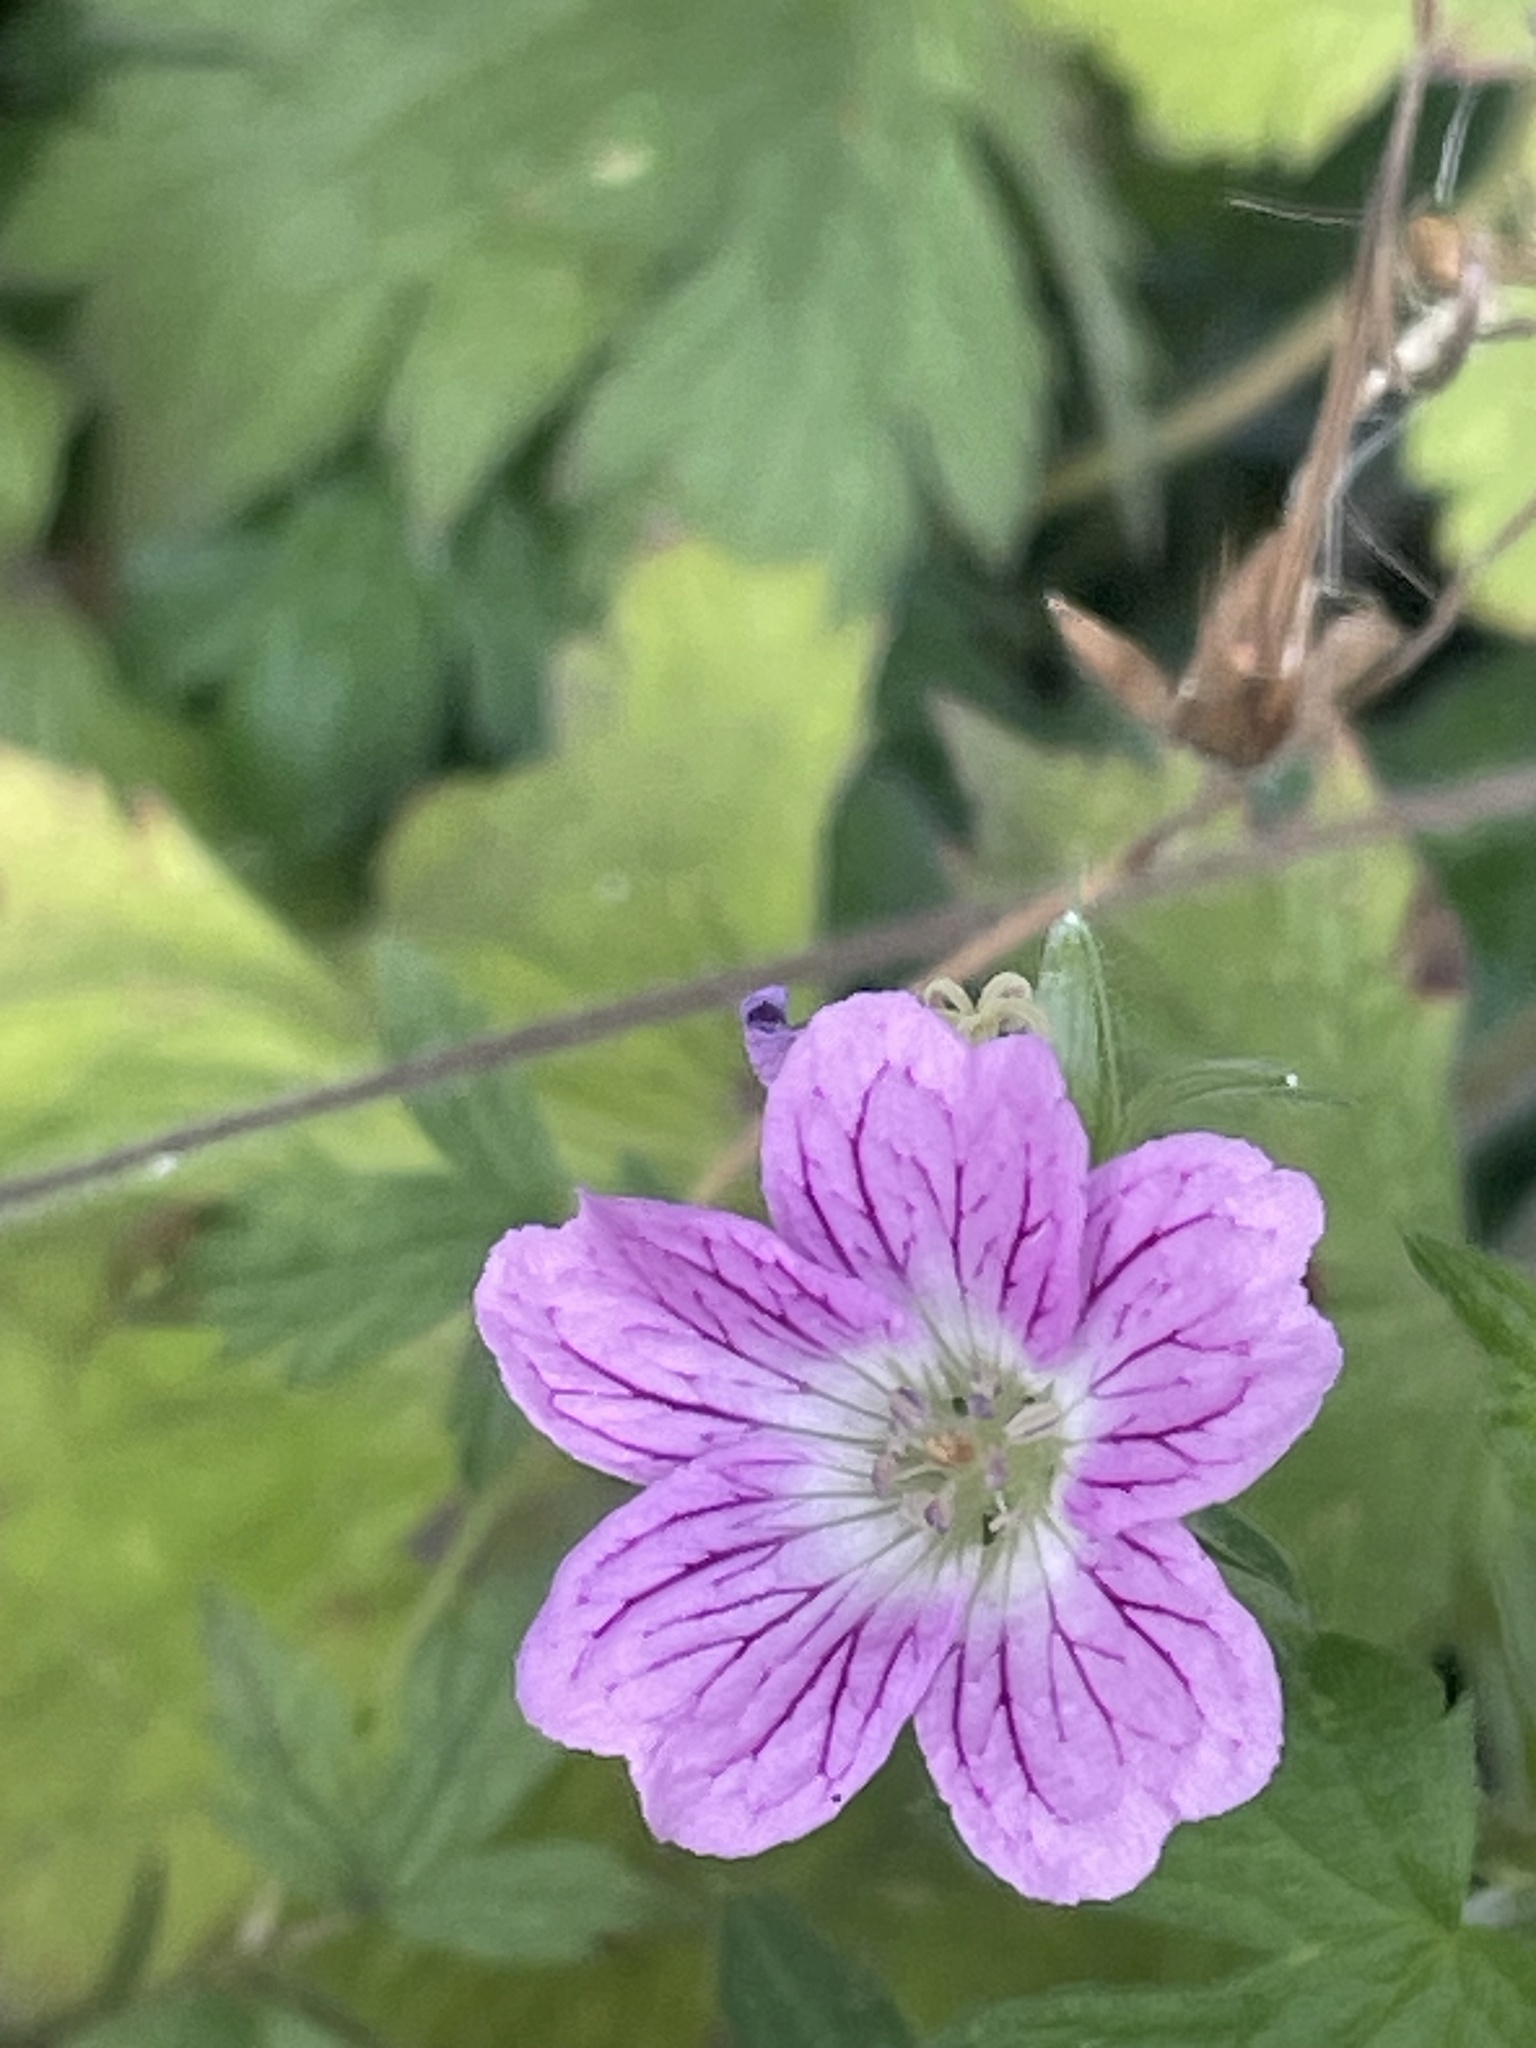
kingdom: Plantae
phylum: Tracheophyta
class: Magnoliopsida
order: Geraniales
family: Geraniaceae
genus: Geranium
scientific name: Geranium oxonianum
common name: Druce's crane's-bill
